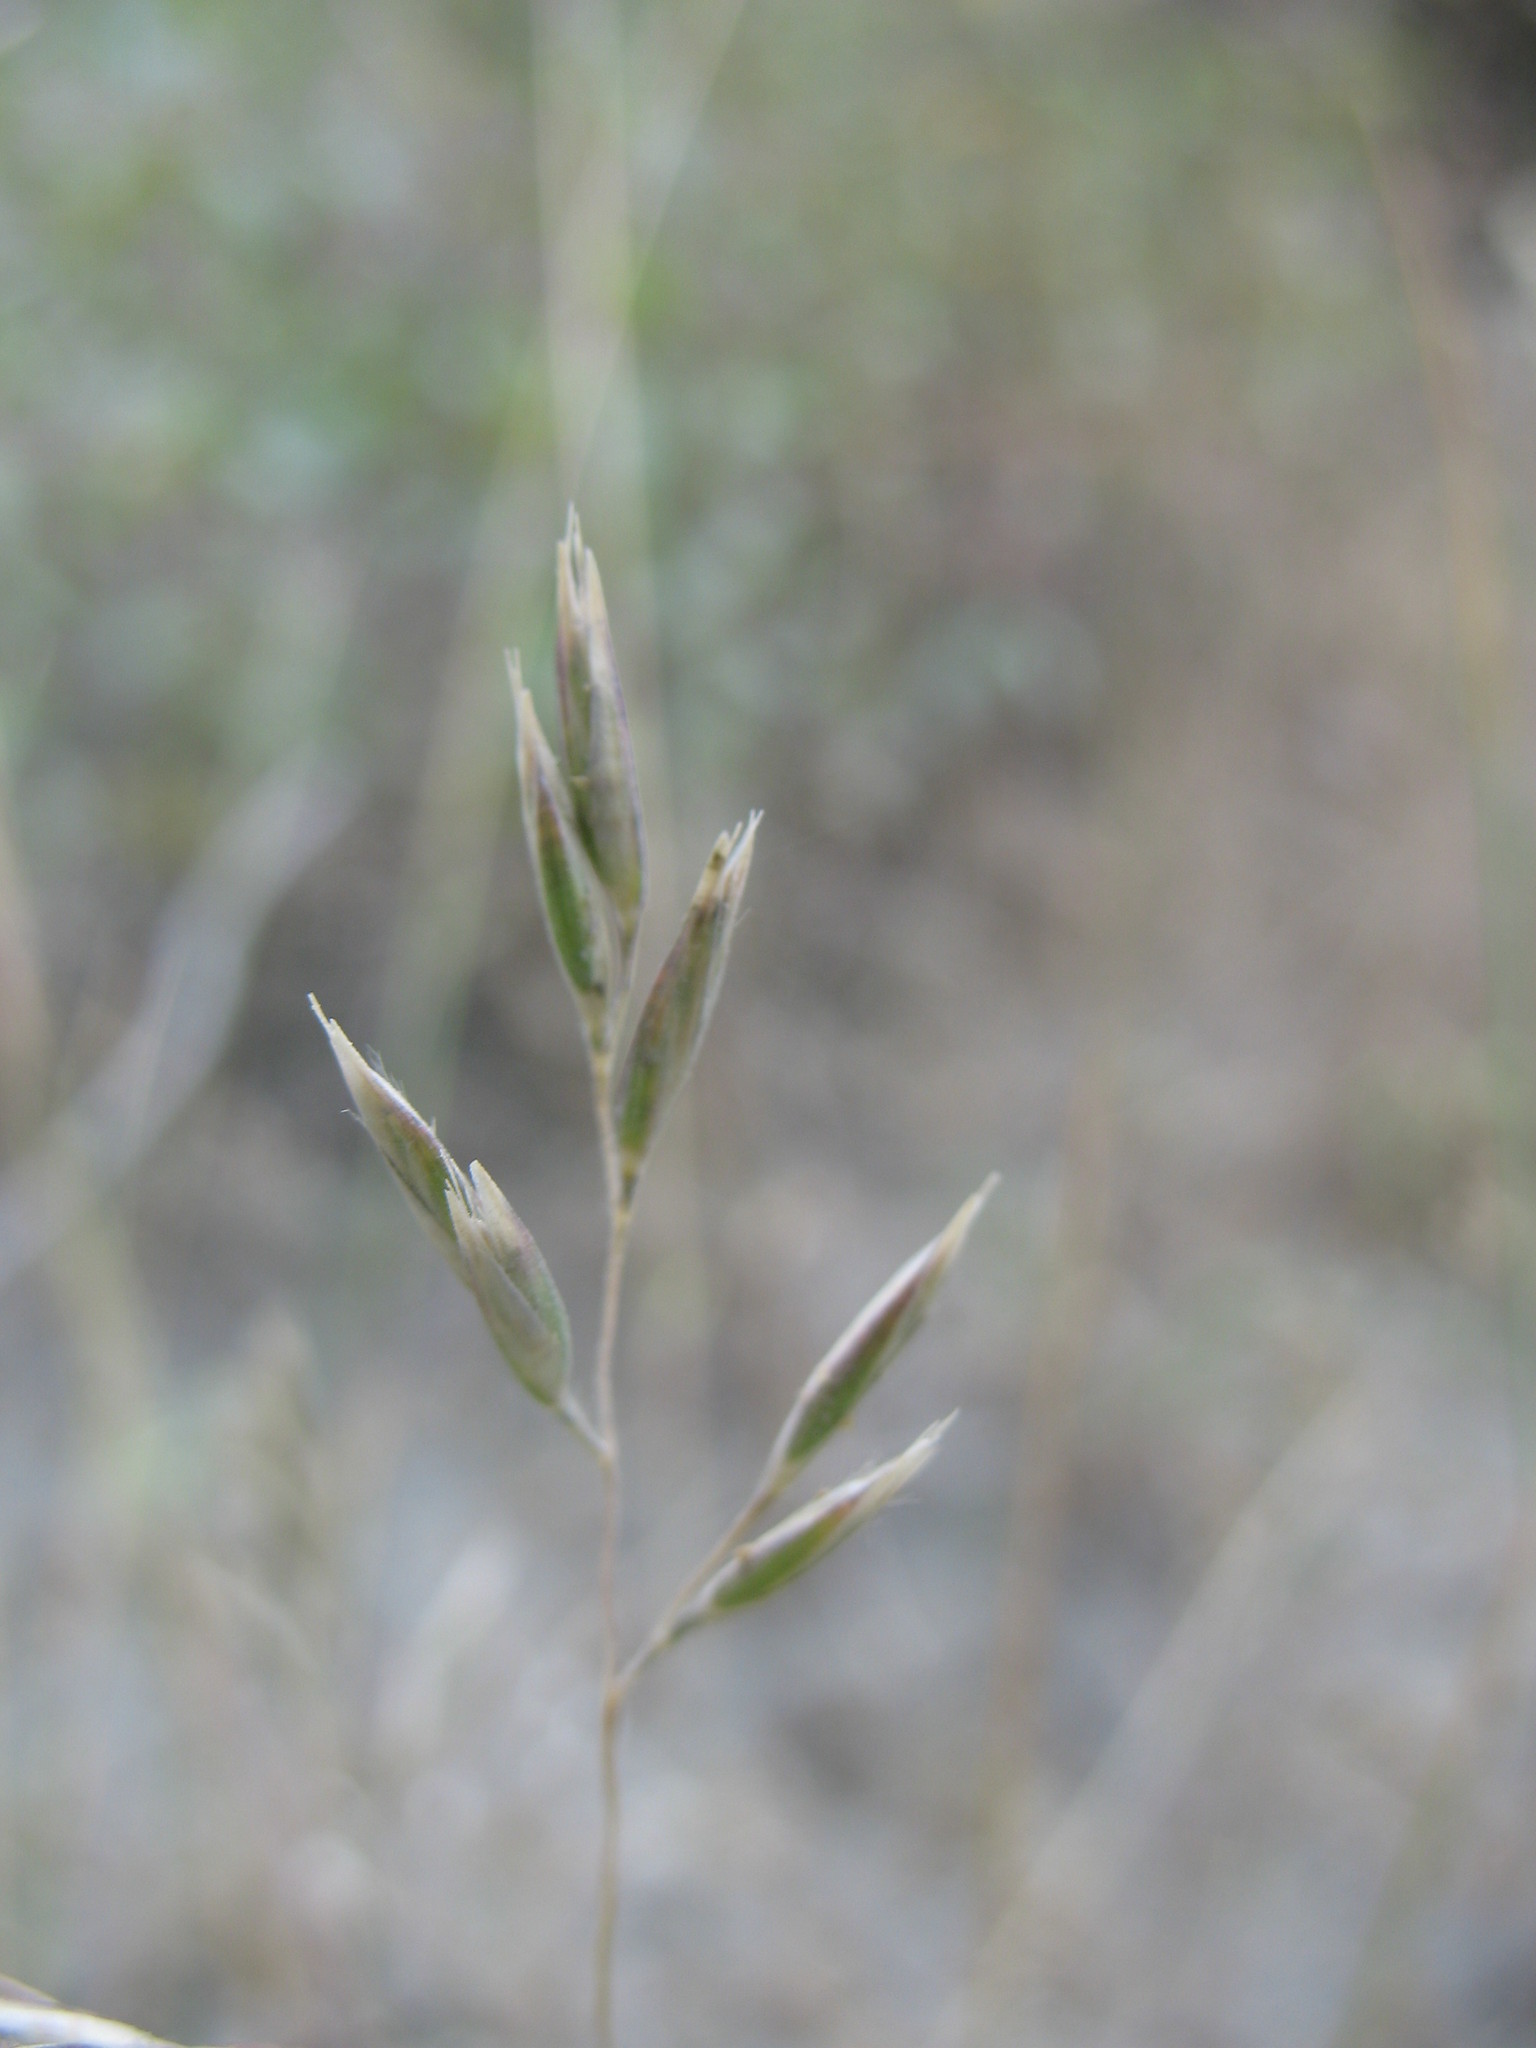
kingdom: Plantae
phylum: Tracheophyta
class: Liliopsida
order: Poales
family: Poaceae
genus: Rytidosperma
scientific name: Rytidosperma buchananii
